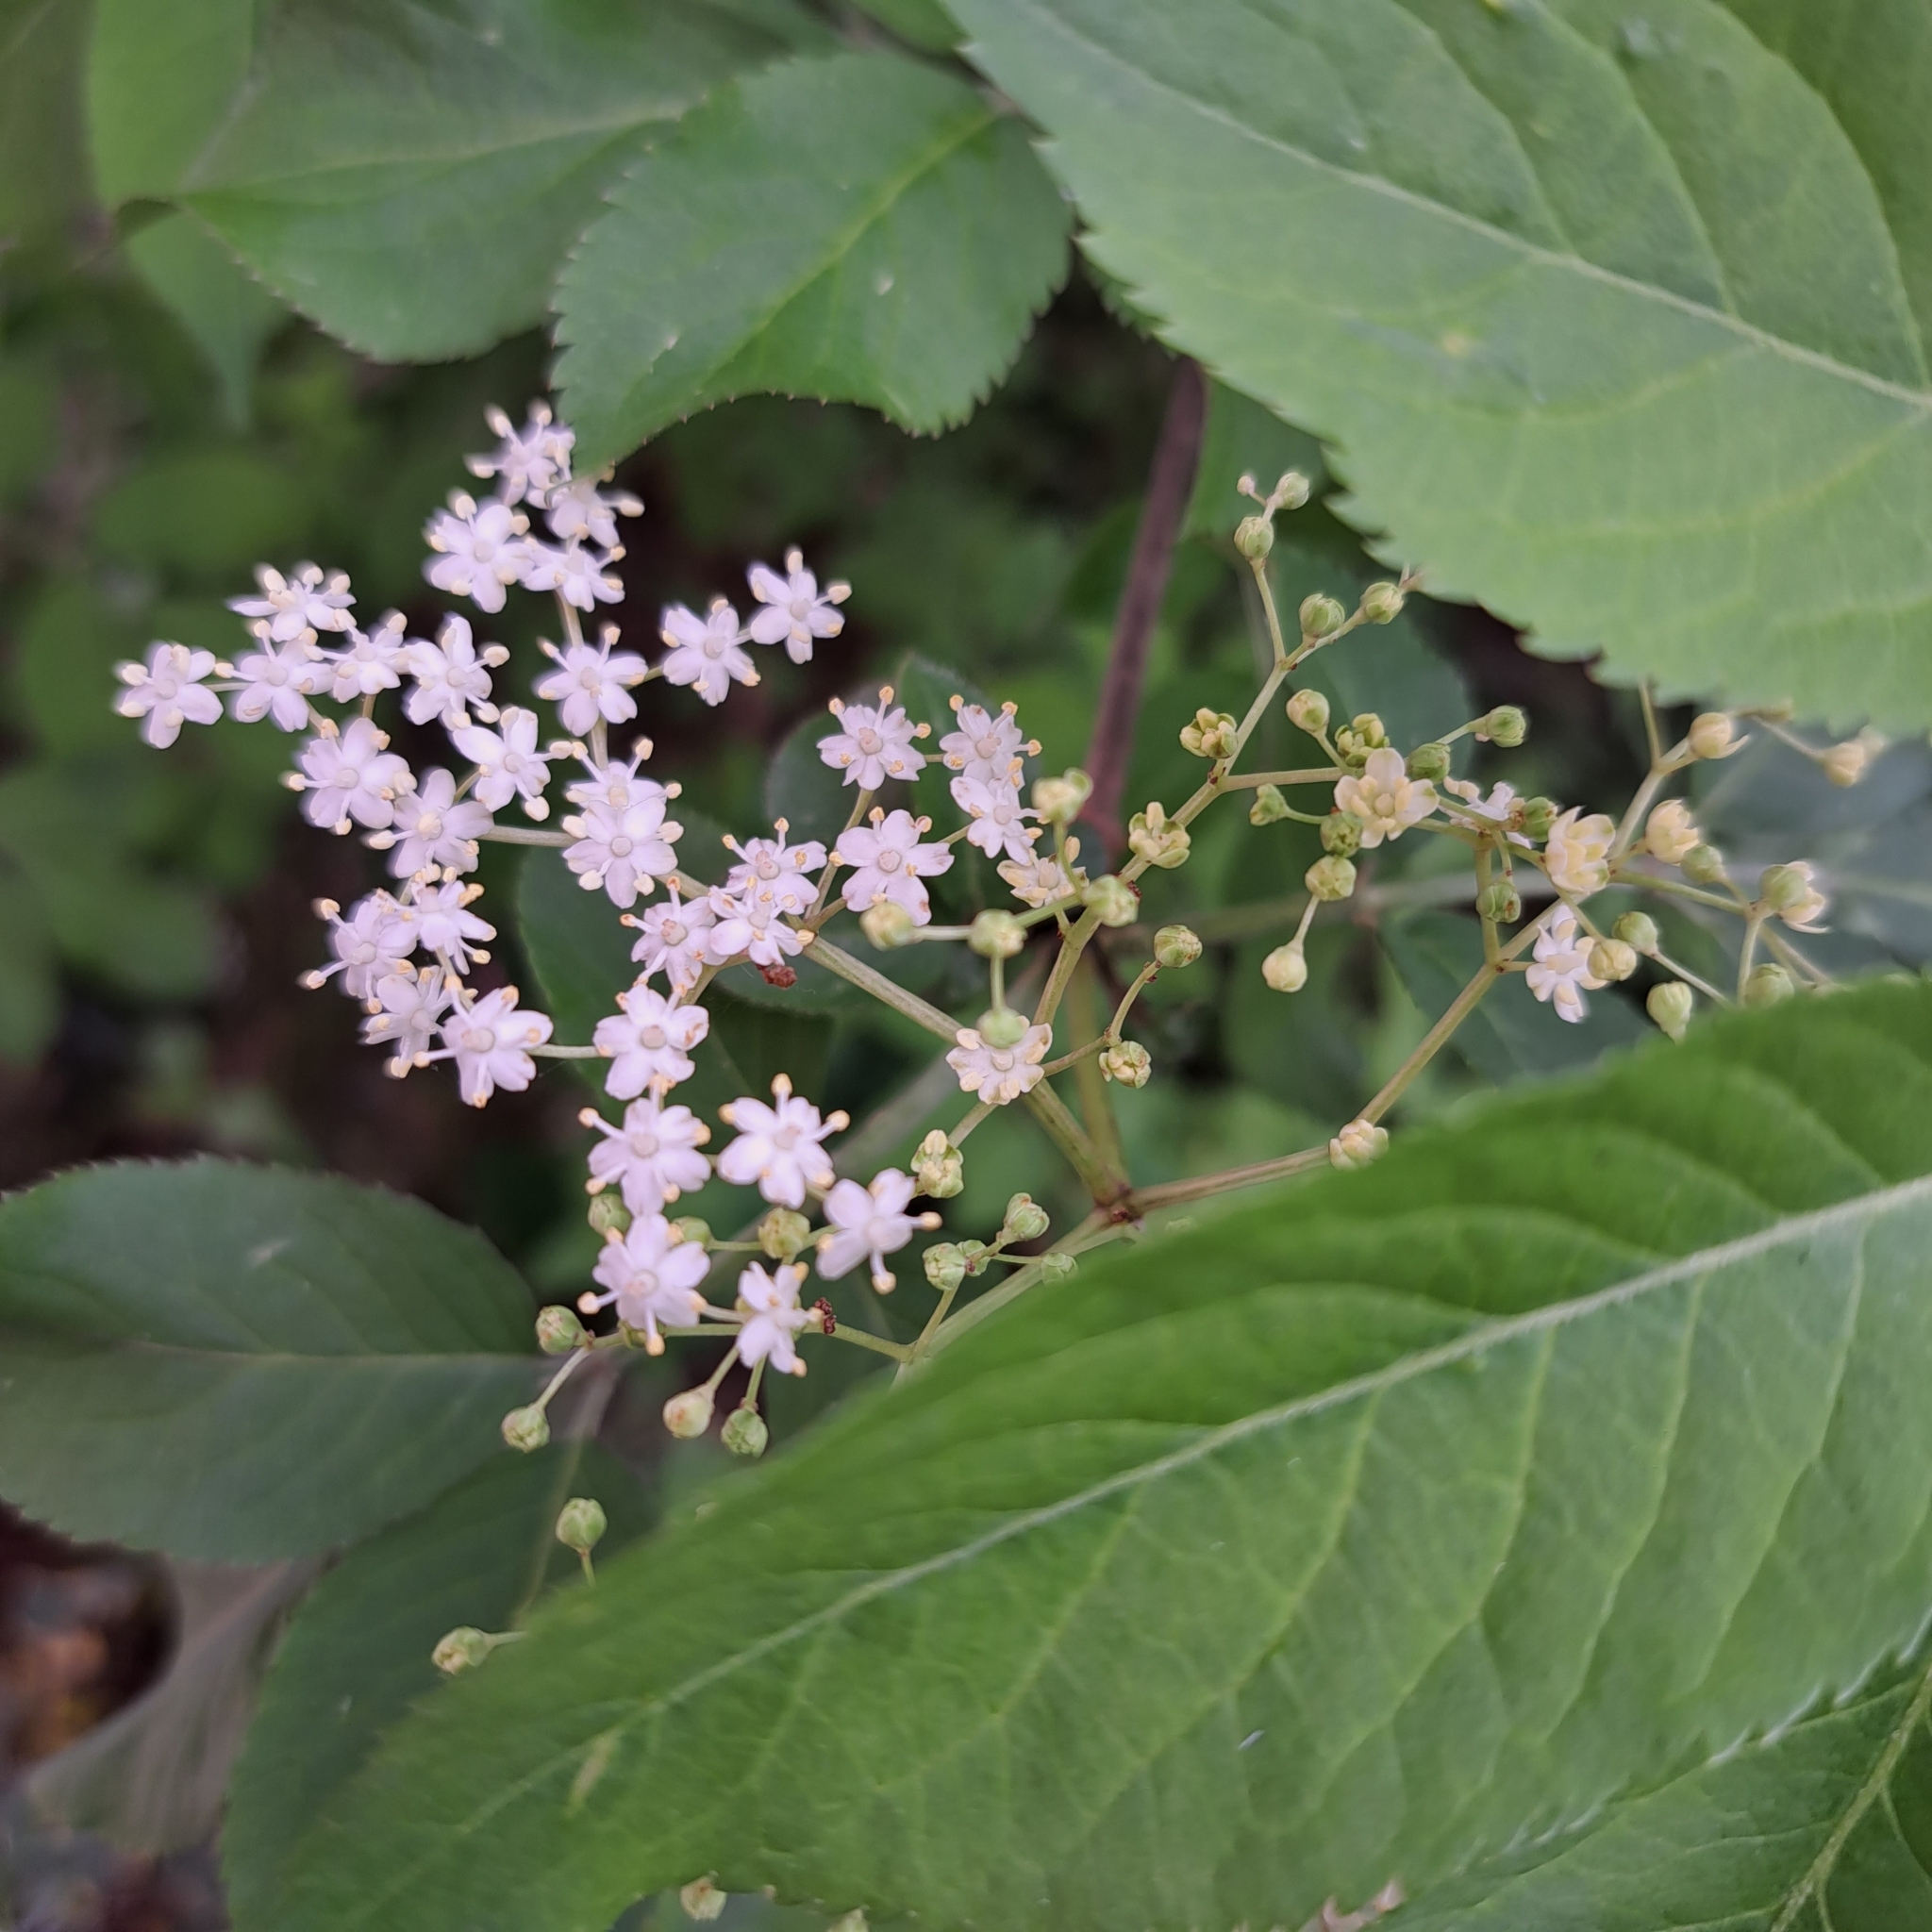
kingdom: Plantae
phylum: Tracheophyta
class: Magnoliopsida
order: Dipsacales
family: Viburnaceae
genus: Sambucus
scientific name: Sambucus nigra
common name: Elder
